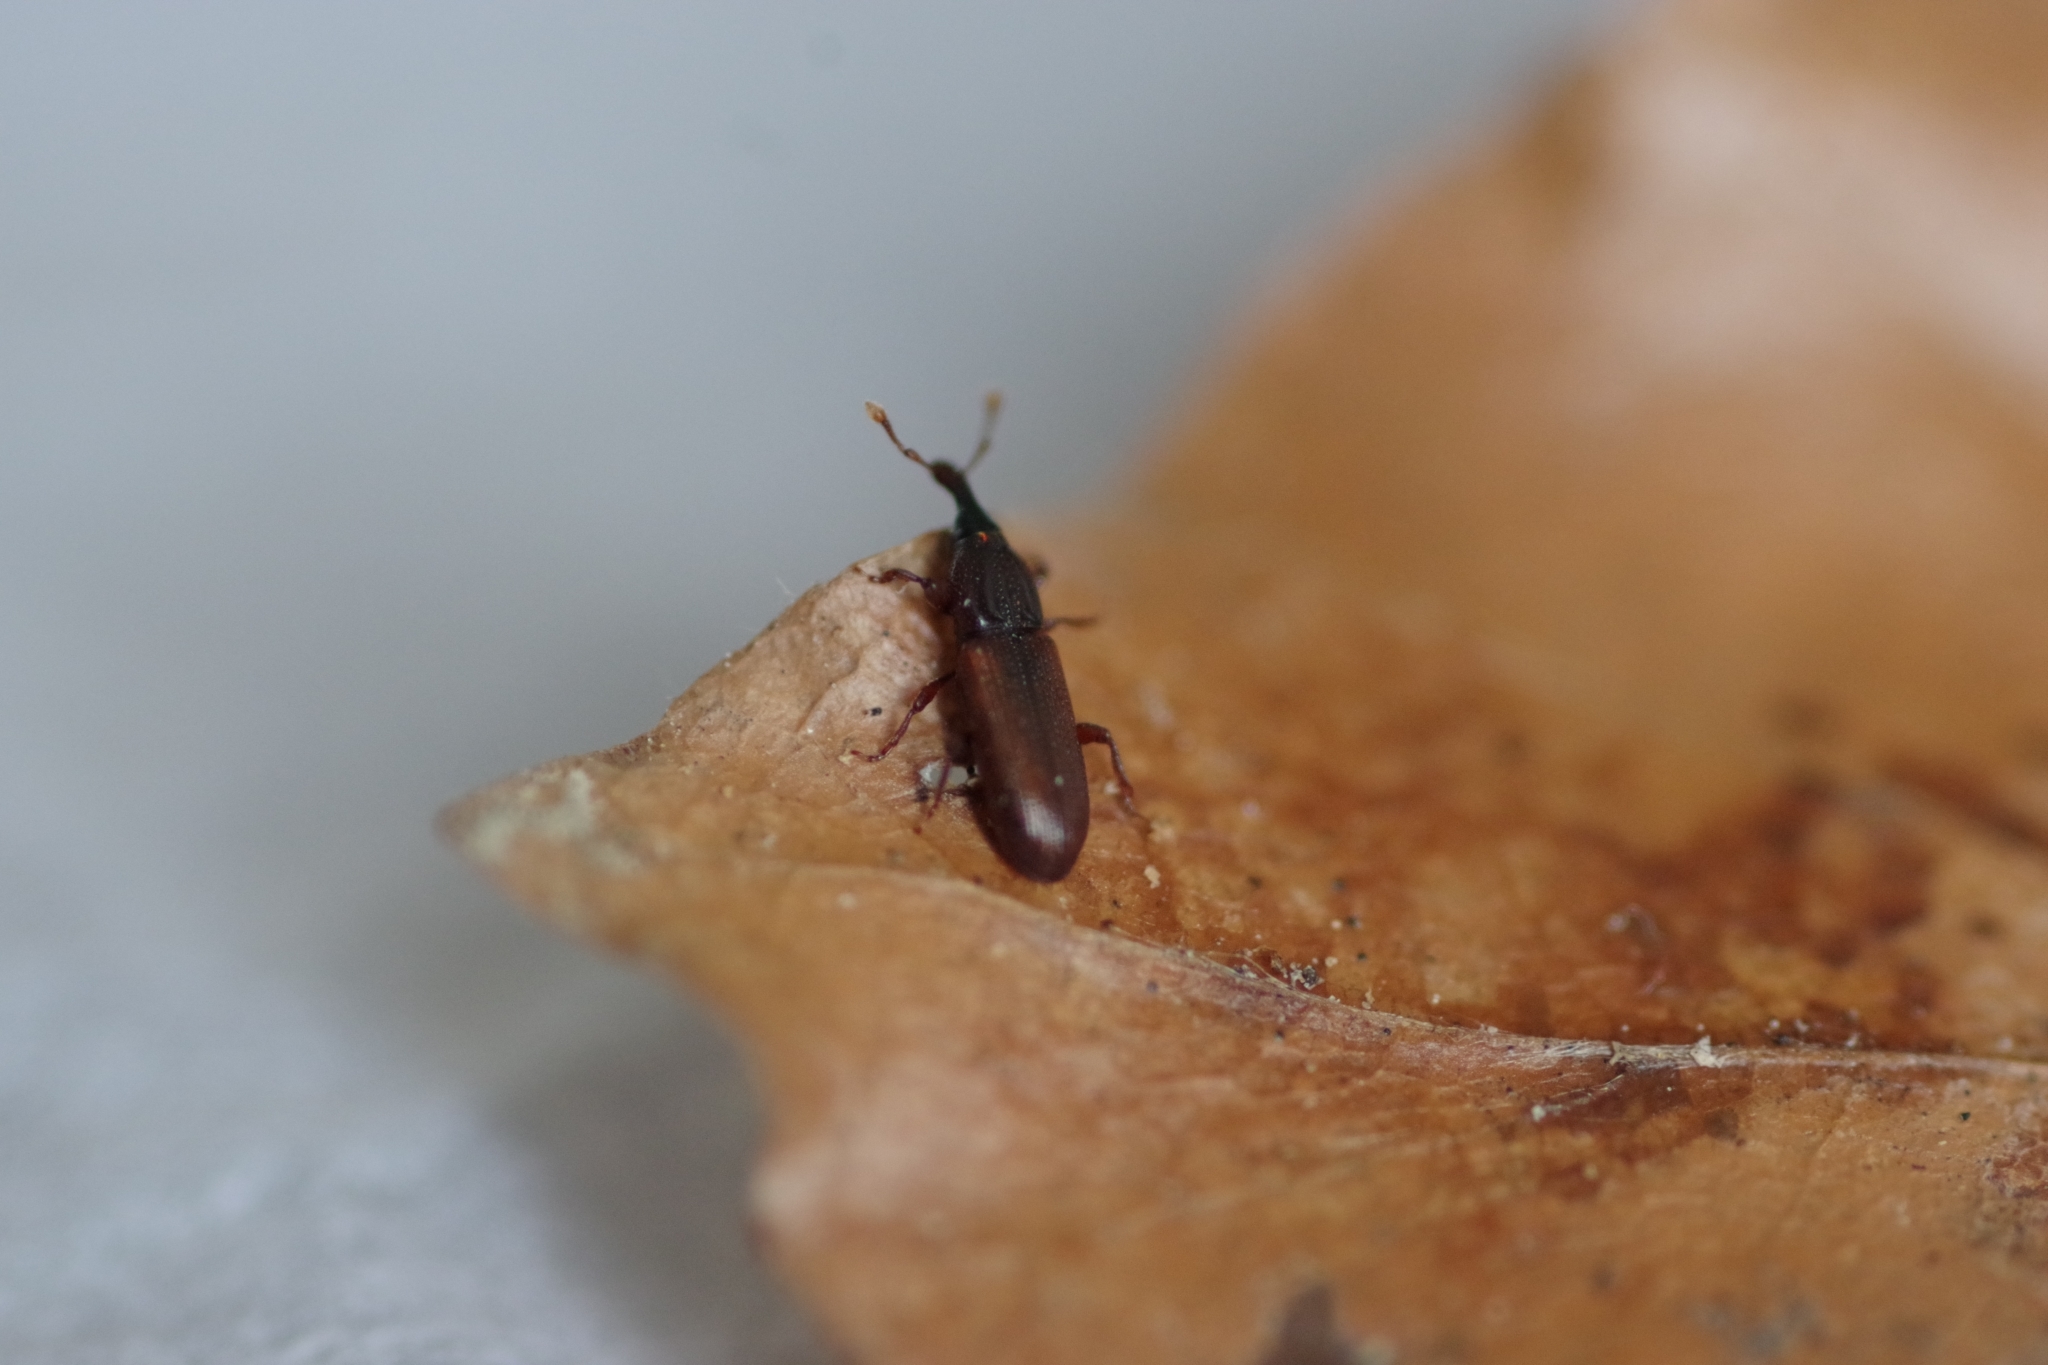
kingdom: Animalia
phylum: Arthropoda
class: Insecta
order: Coleoptera
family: Curculionidae
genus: Cossonus
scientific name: Cossonus linearis
